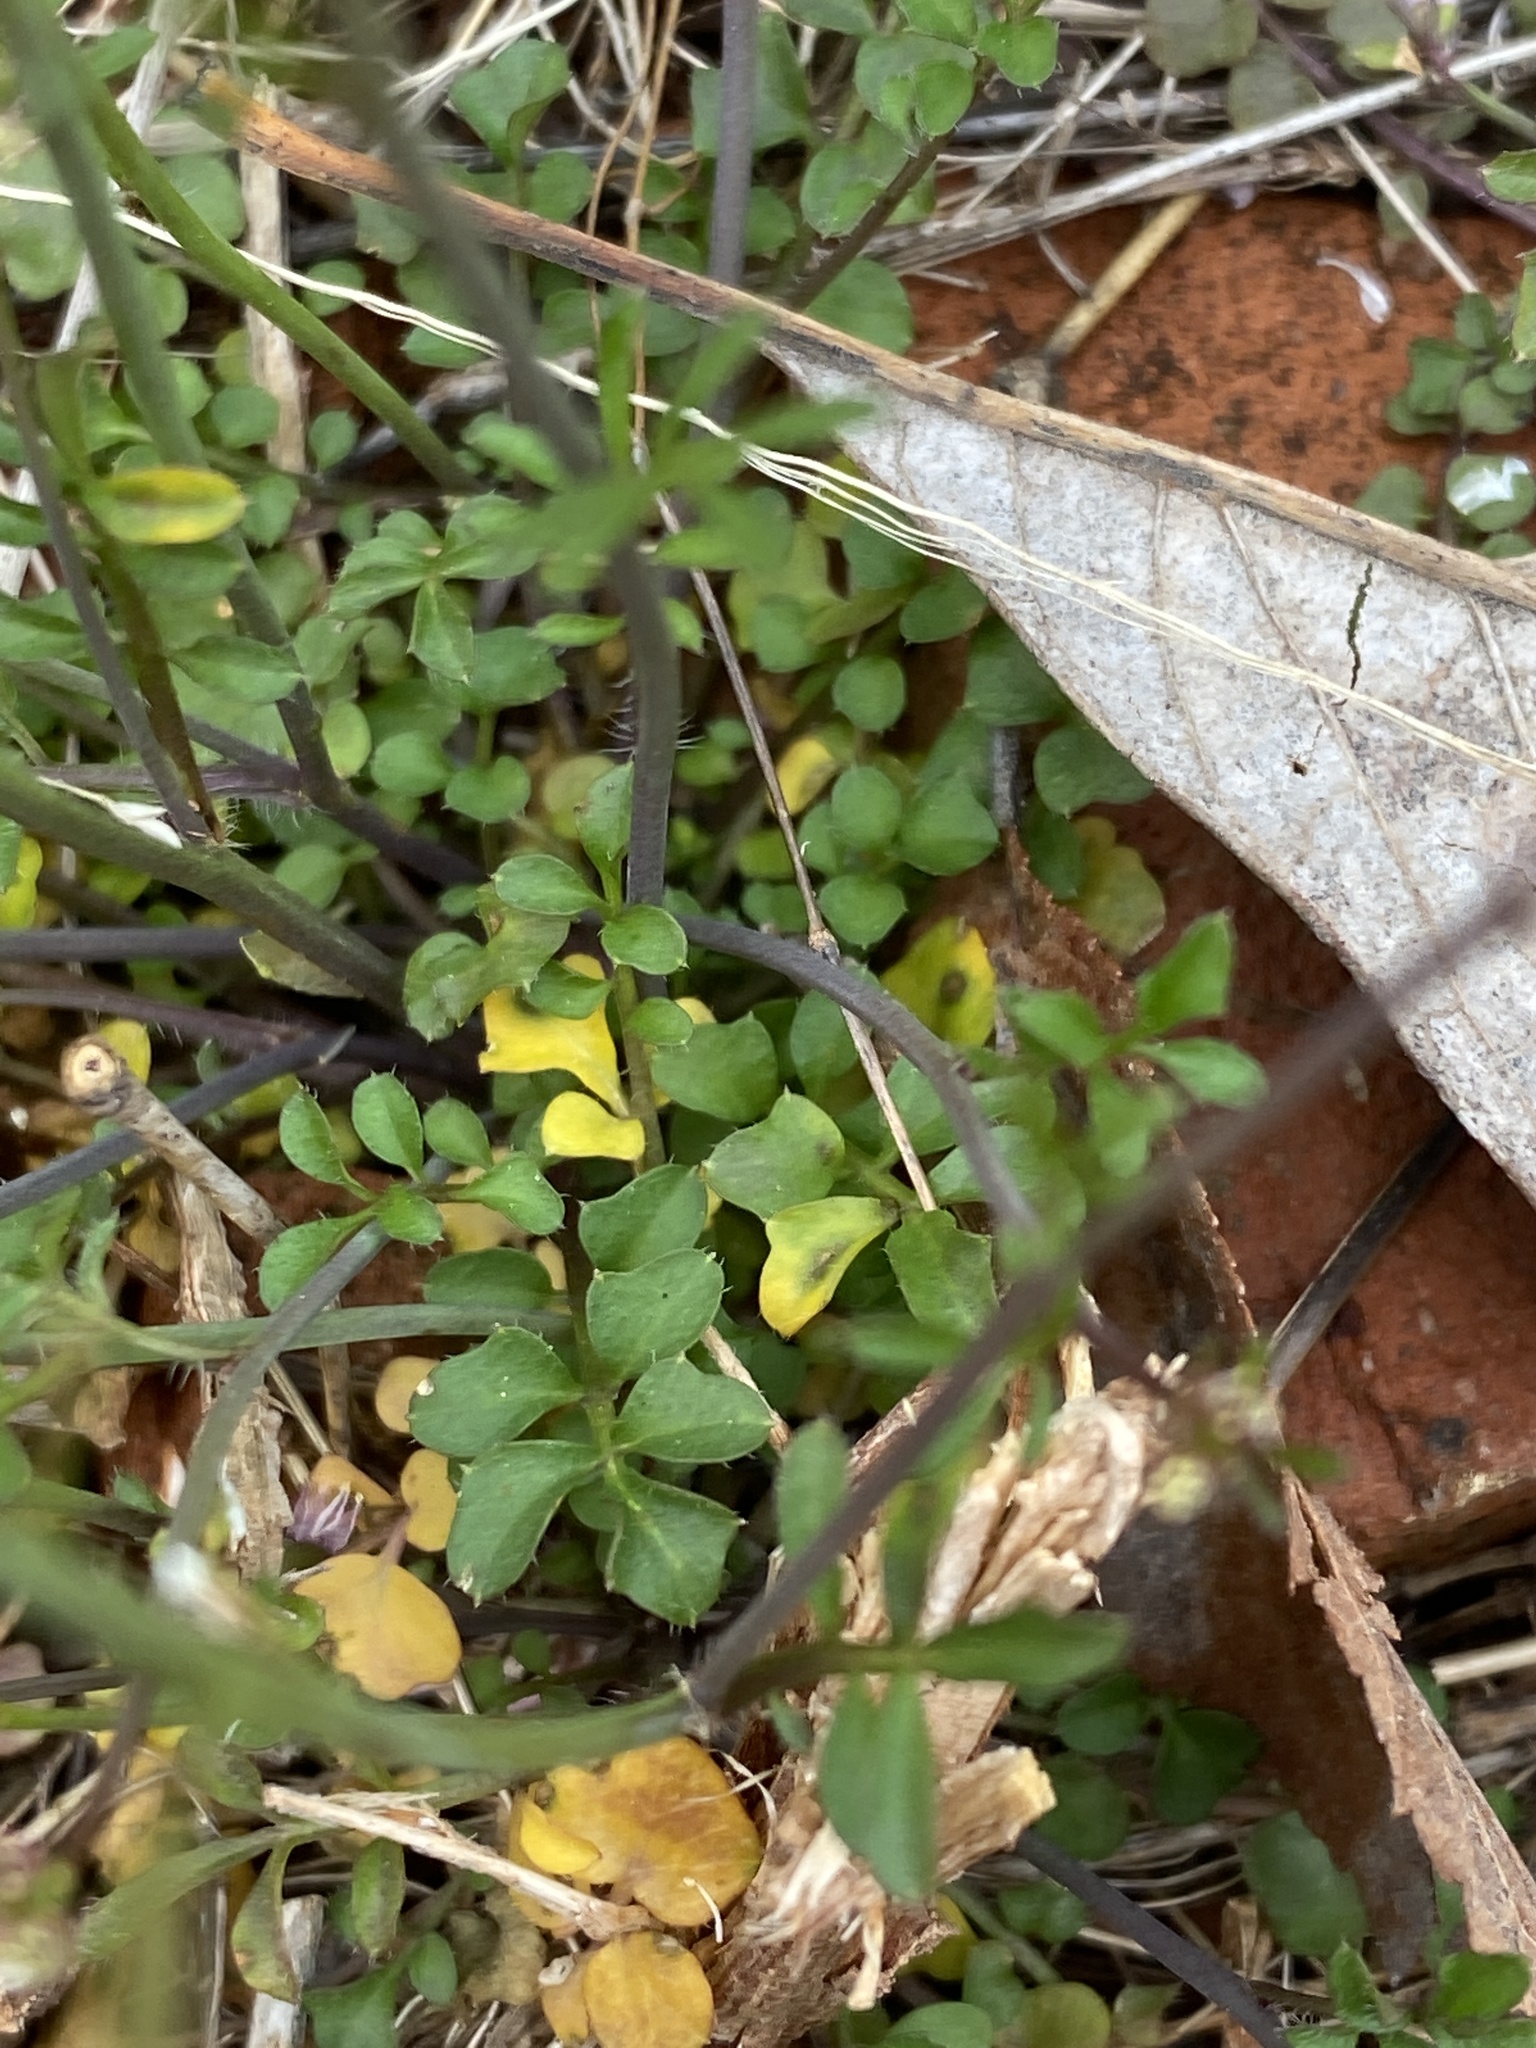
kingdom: Plantae
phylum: Tracheophyta
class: Magnoliopsida
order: Brassicales
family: Brassicaceae
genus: Cardamine
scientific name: Cardamine hirsuta
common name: Hairy bittercress
